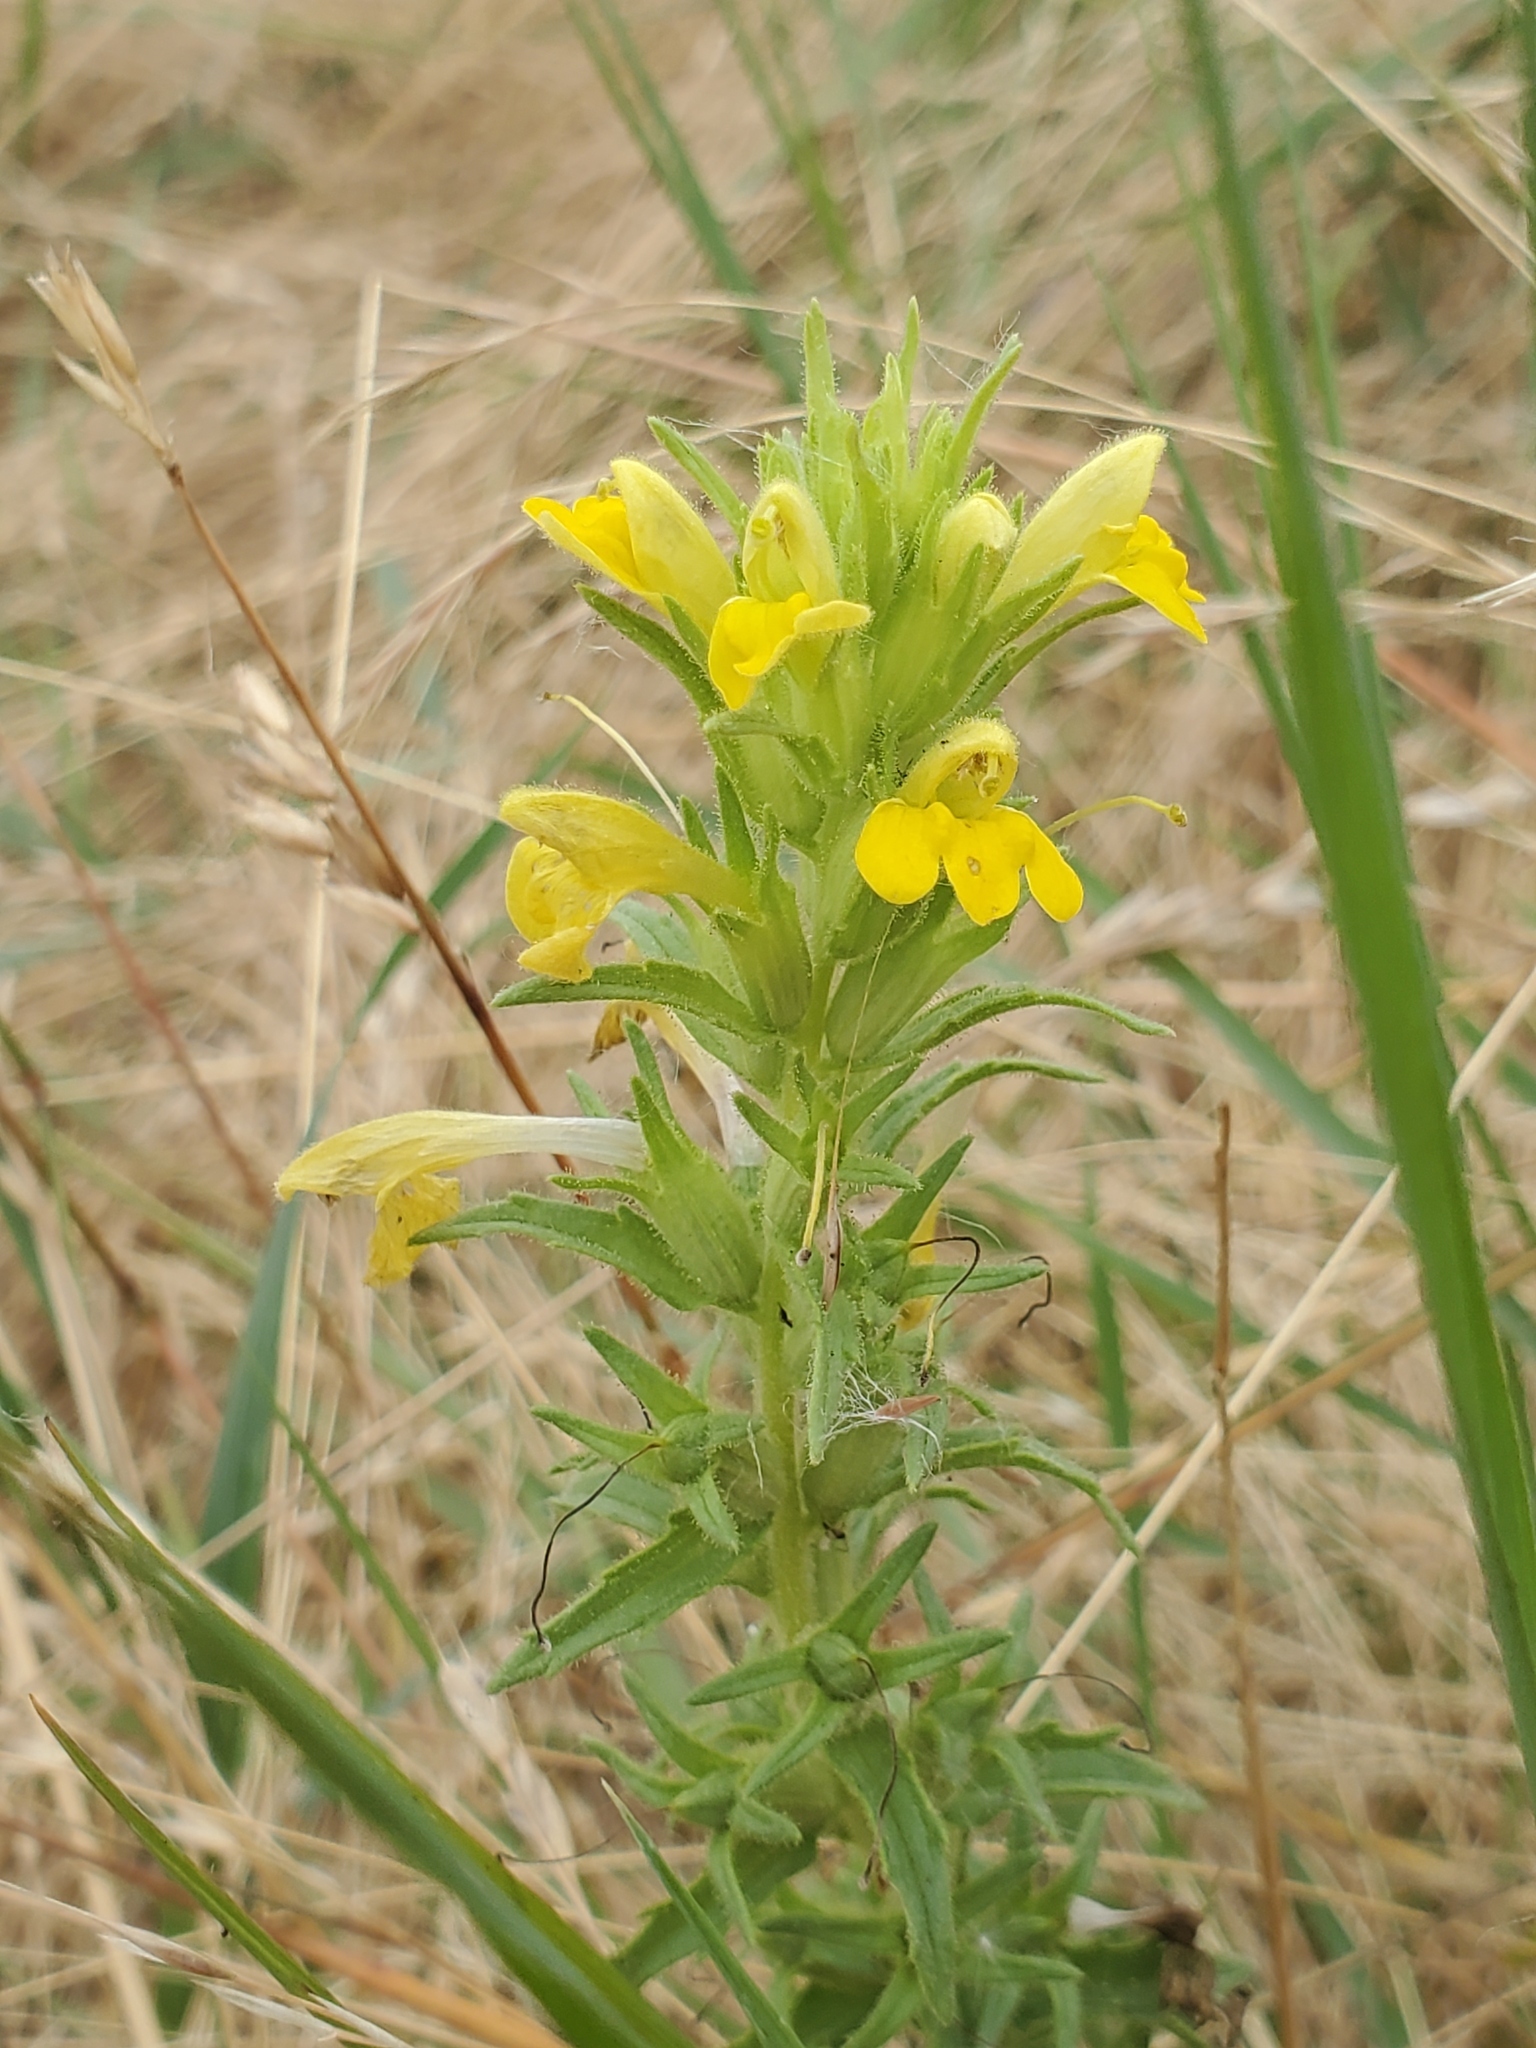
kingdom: Plantae
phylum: Tracheophyta
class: Magnoliopsida
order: Lamiales
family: Orobanchaceae
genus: Bellardia
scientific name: Bellardia viscosa
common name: Sticky parentucellia
